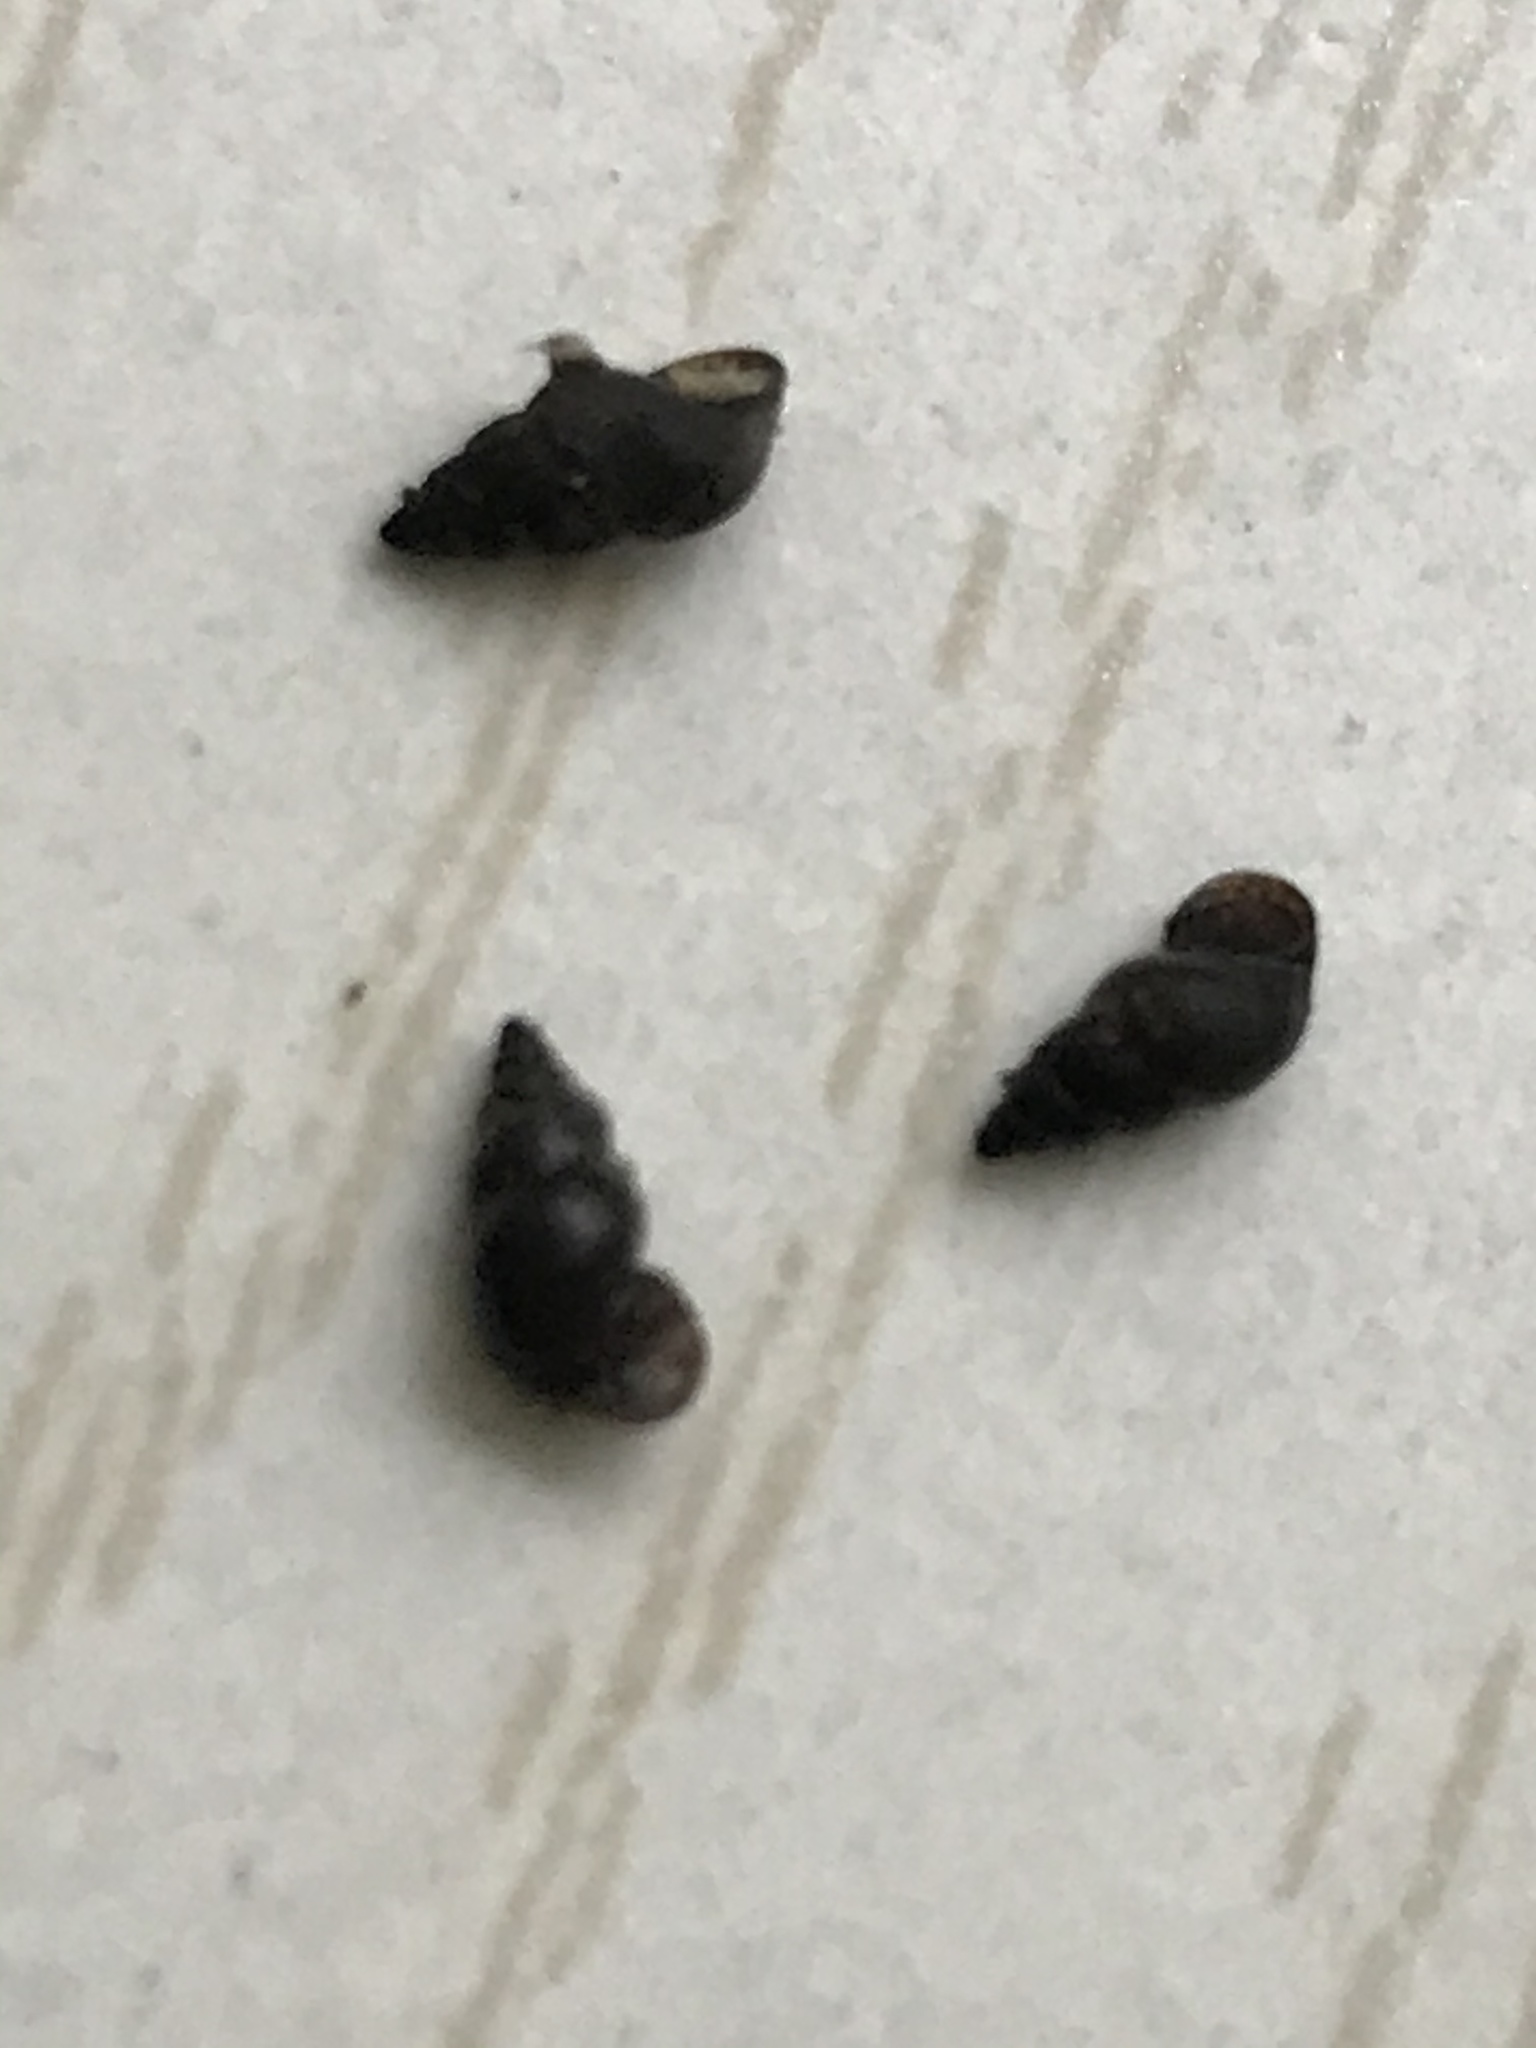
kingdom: Animalia
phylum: Mollusca
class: Gastropoda
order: Littorinimorpha
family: Tateidae
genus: Potamopyrgus
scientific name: Potamopyrgus antipodarum
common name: Jenkins' spire snail
